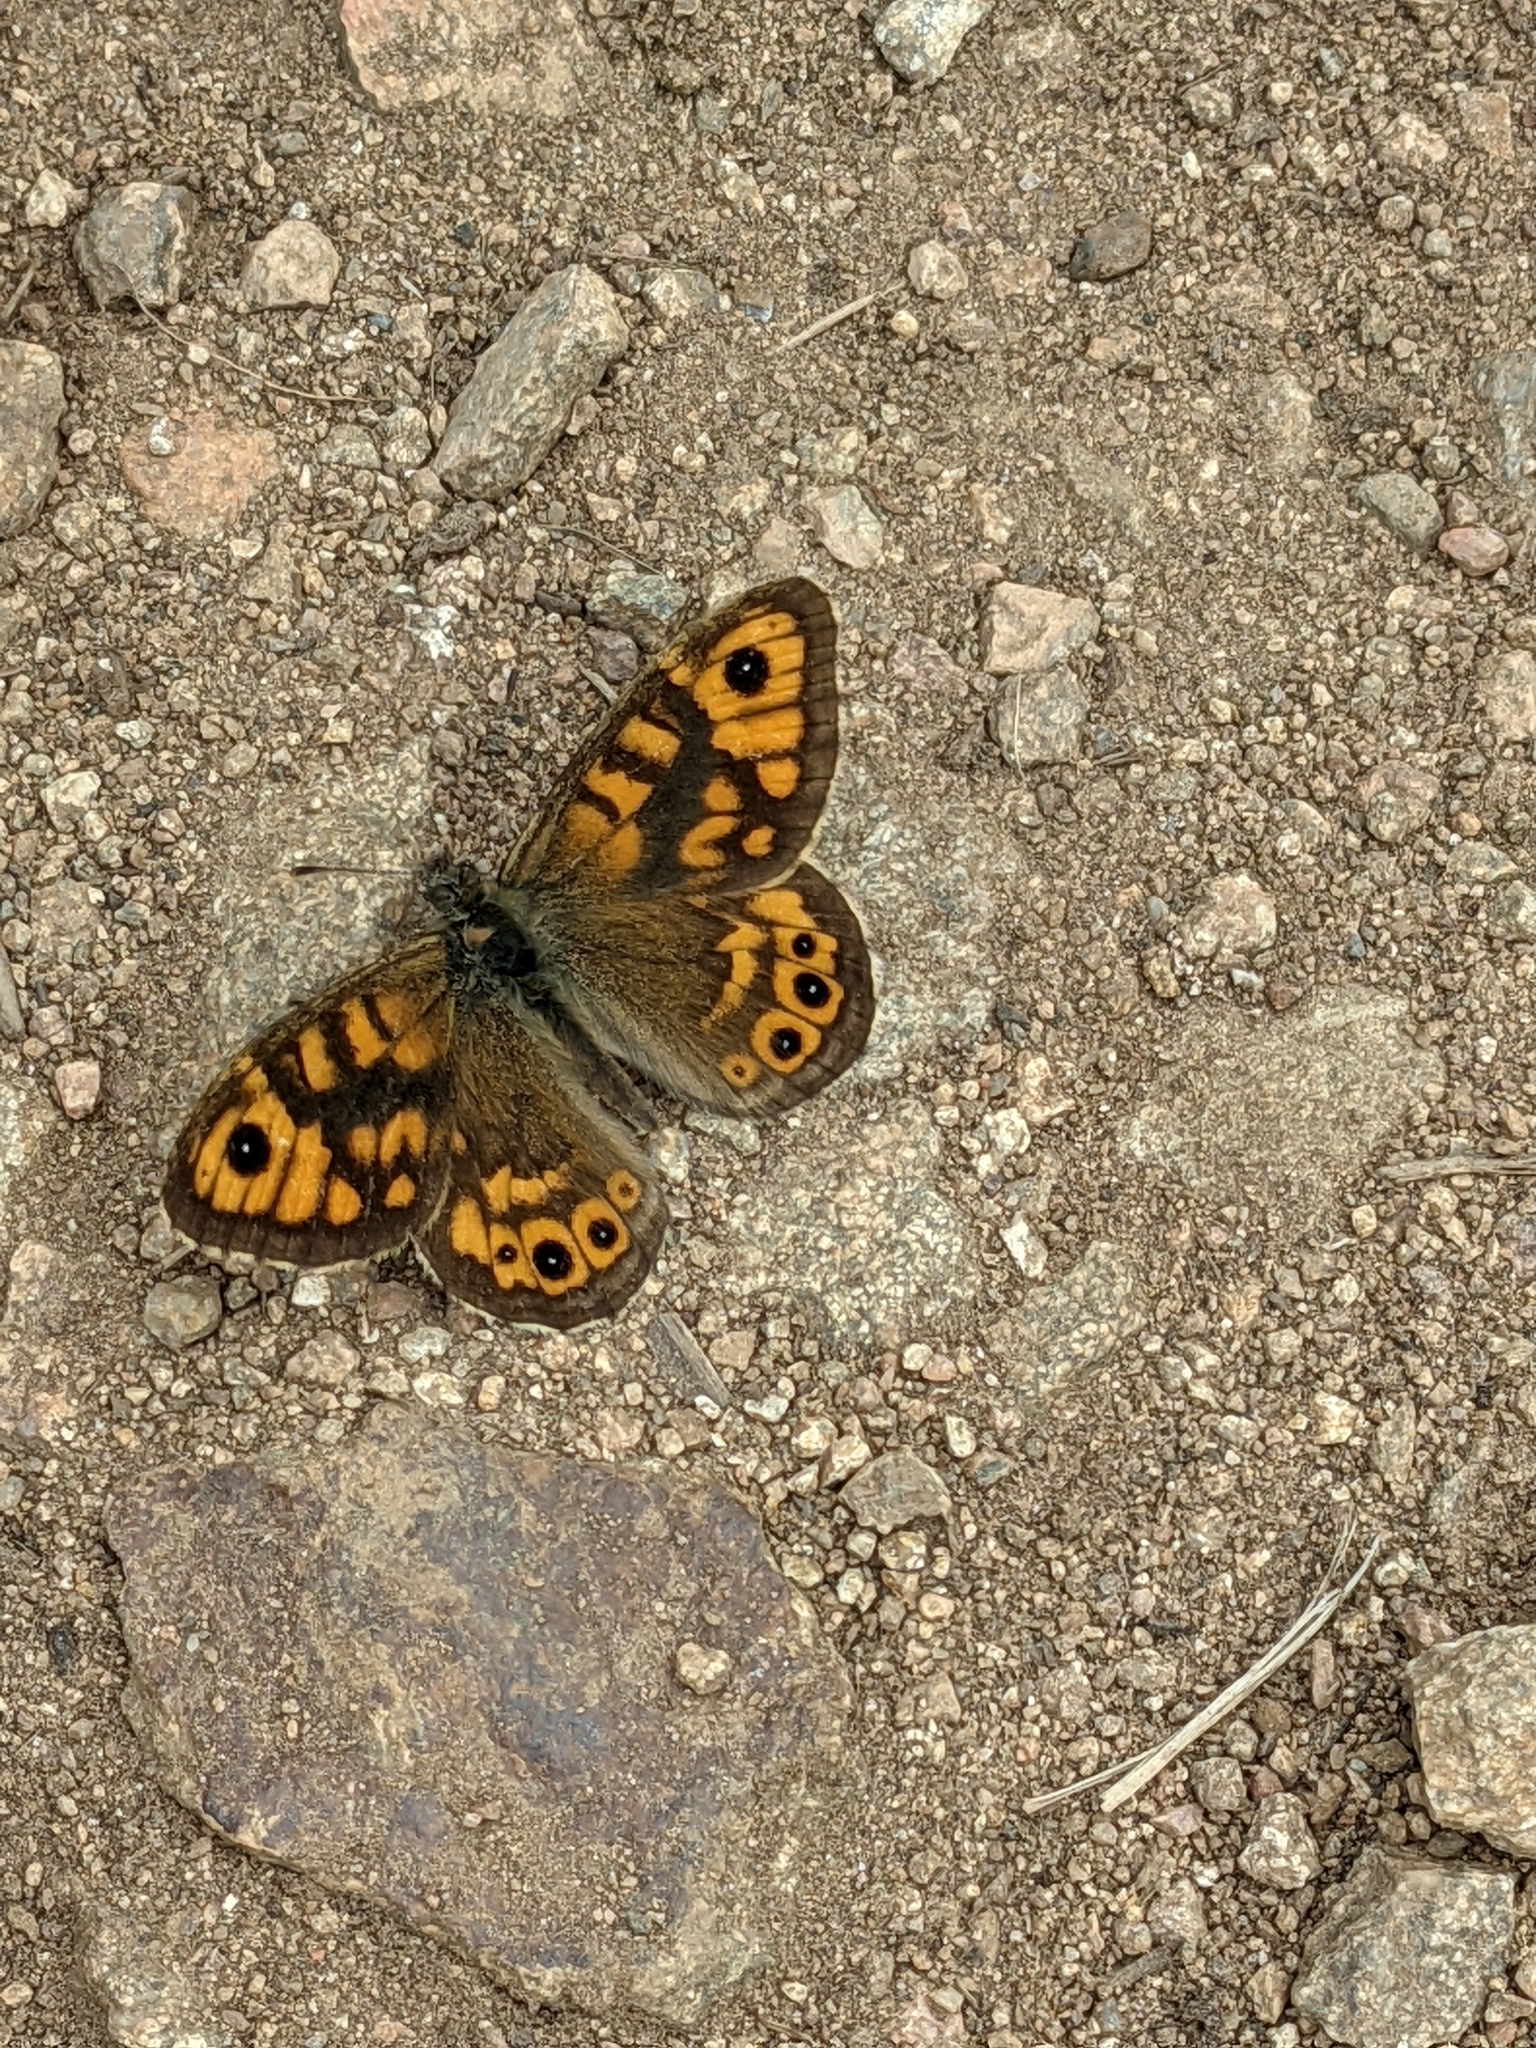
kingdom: Animalia
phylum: Arthropoda
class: Insecta
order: Lepidoptera
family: Nymphalidae
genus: Pararge
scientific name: Pararge Lasiommata megera
